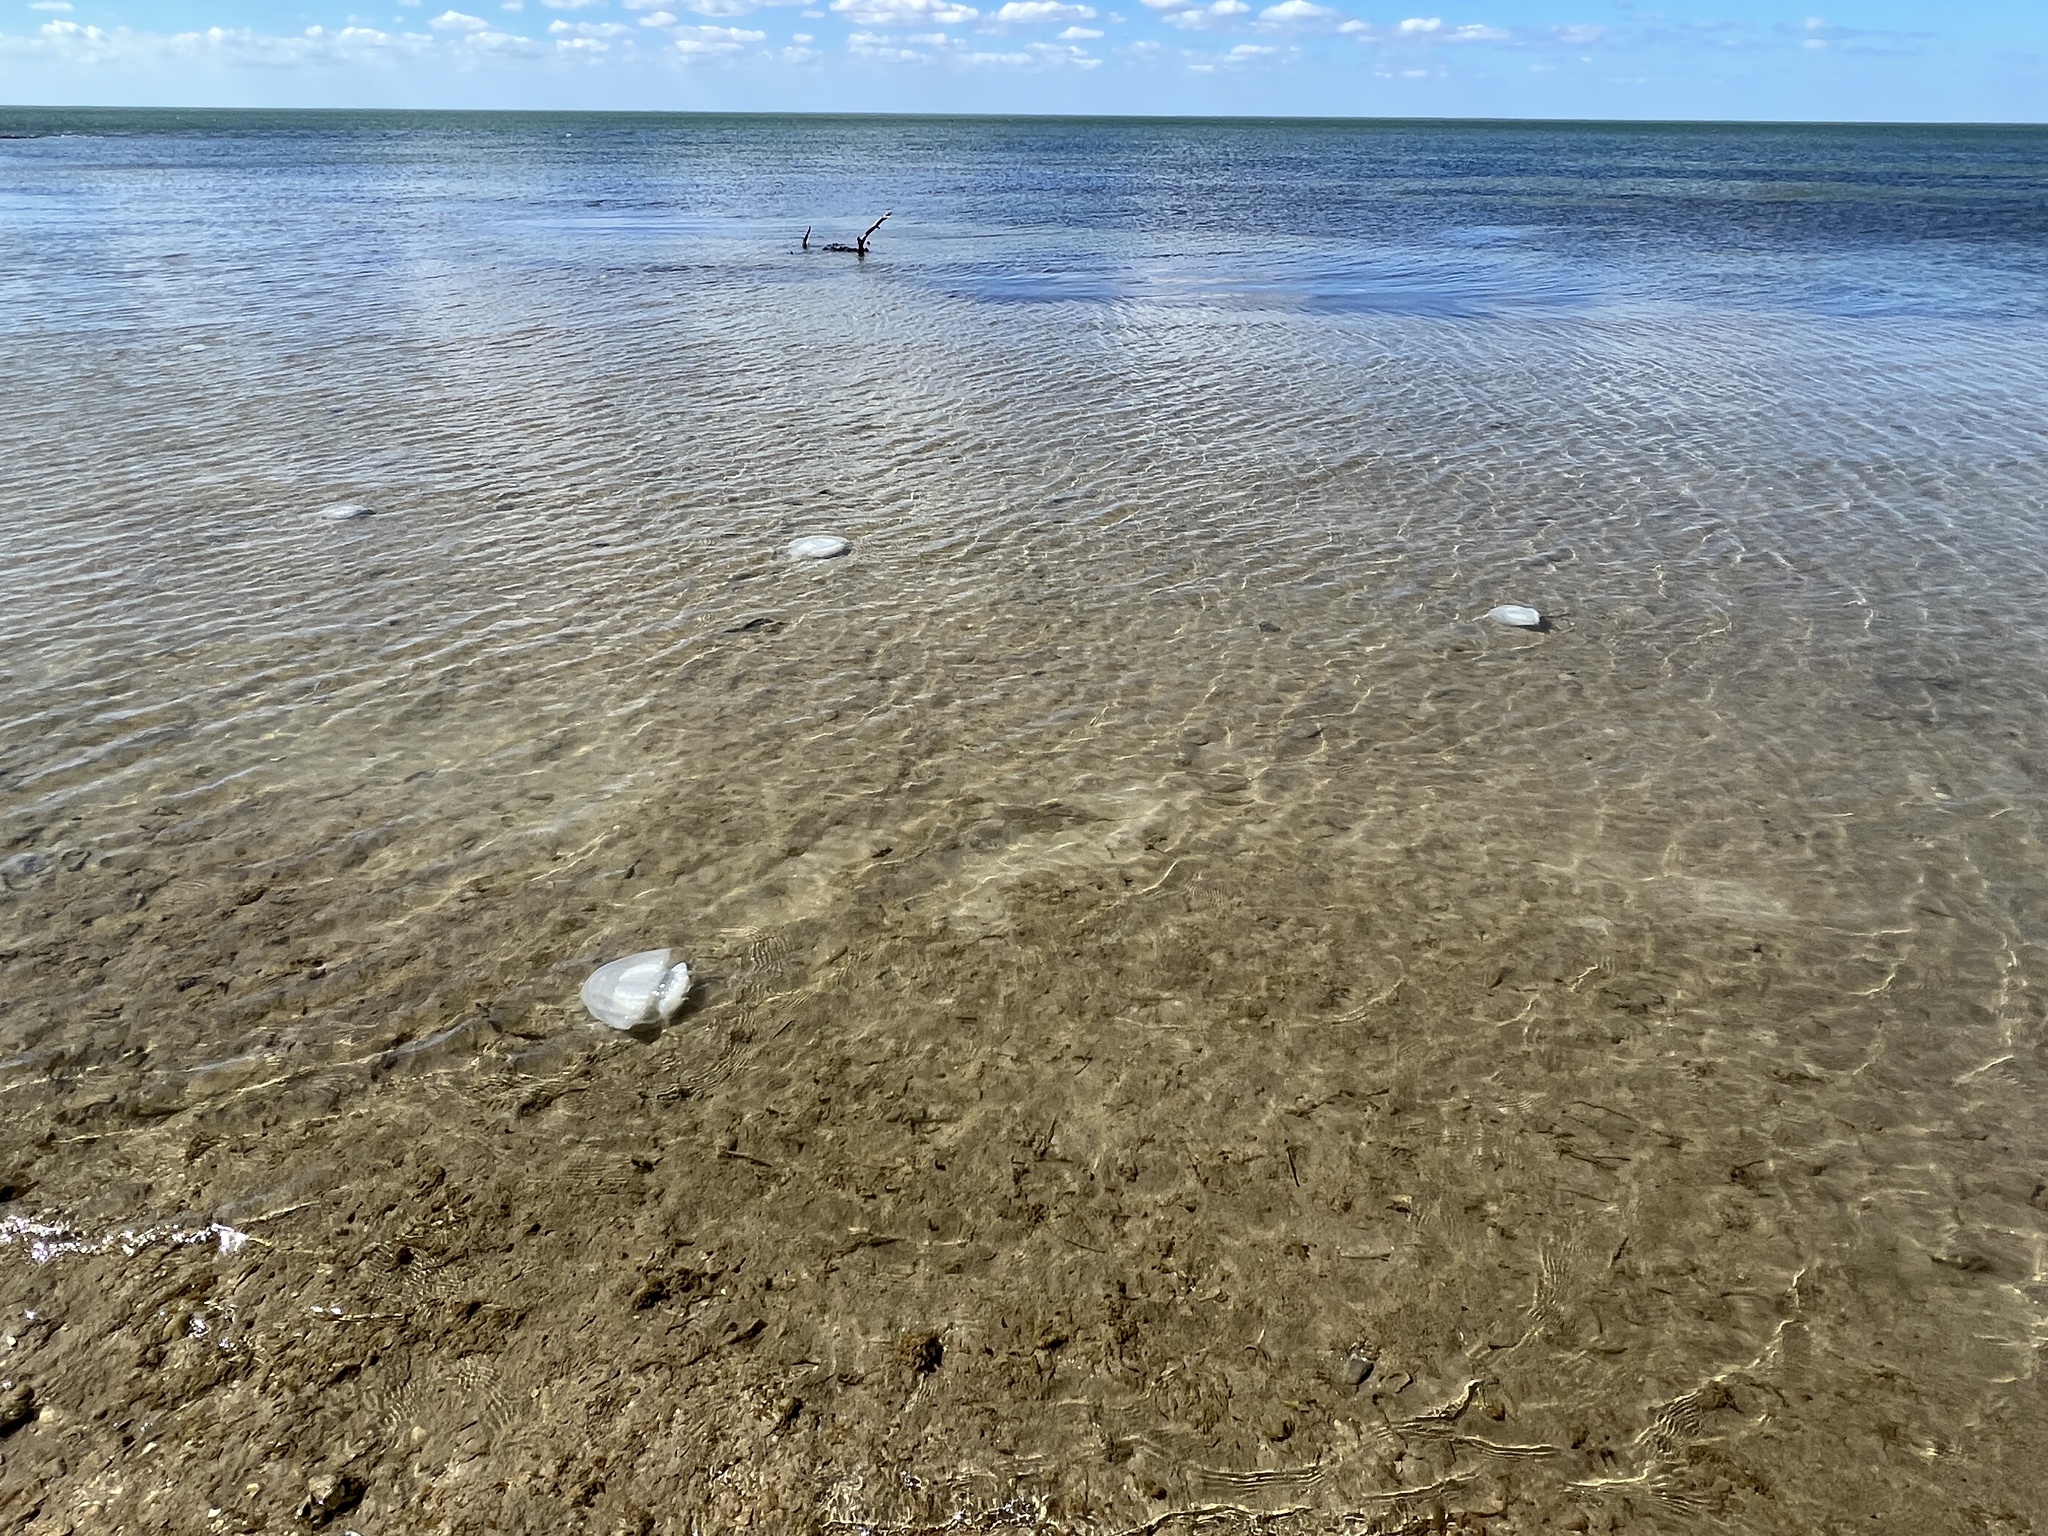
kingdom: Animalia
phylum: Cnidaria
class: Scyphozoa
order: Rhizostomeae
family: Stomolophidae
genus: Stomolophus
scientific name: Stomolophus meleagris
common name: Cabbagehead
